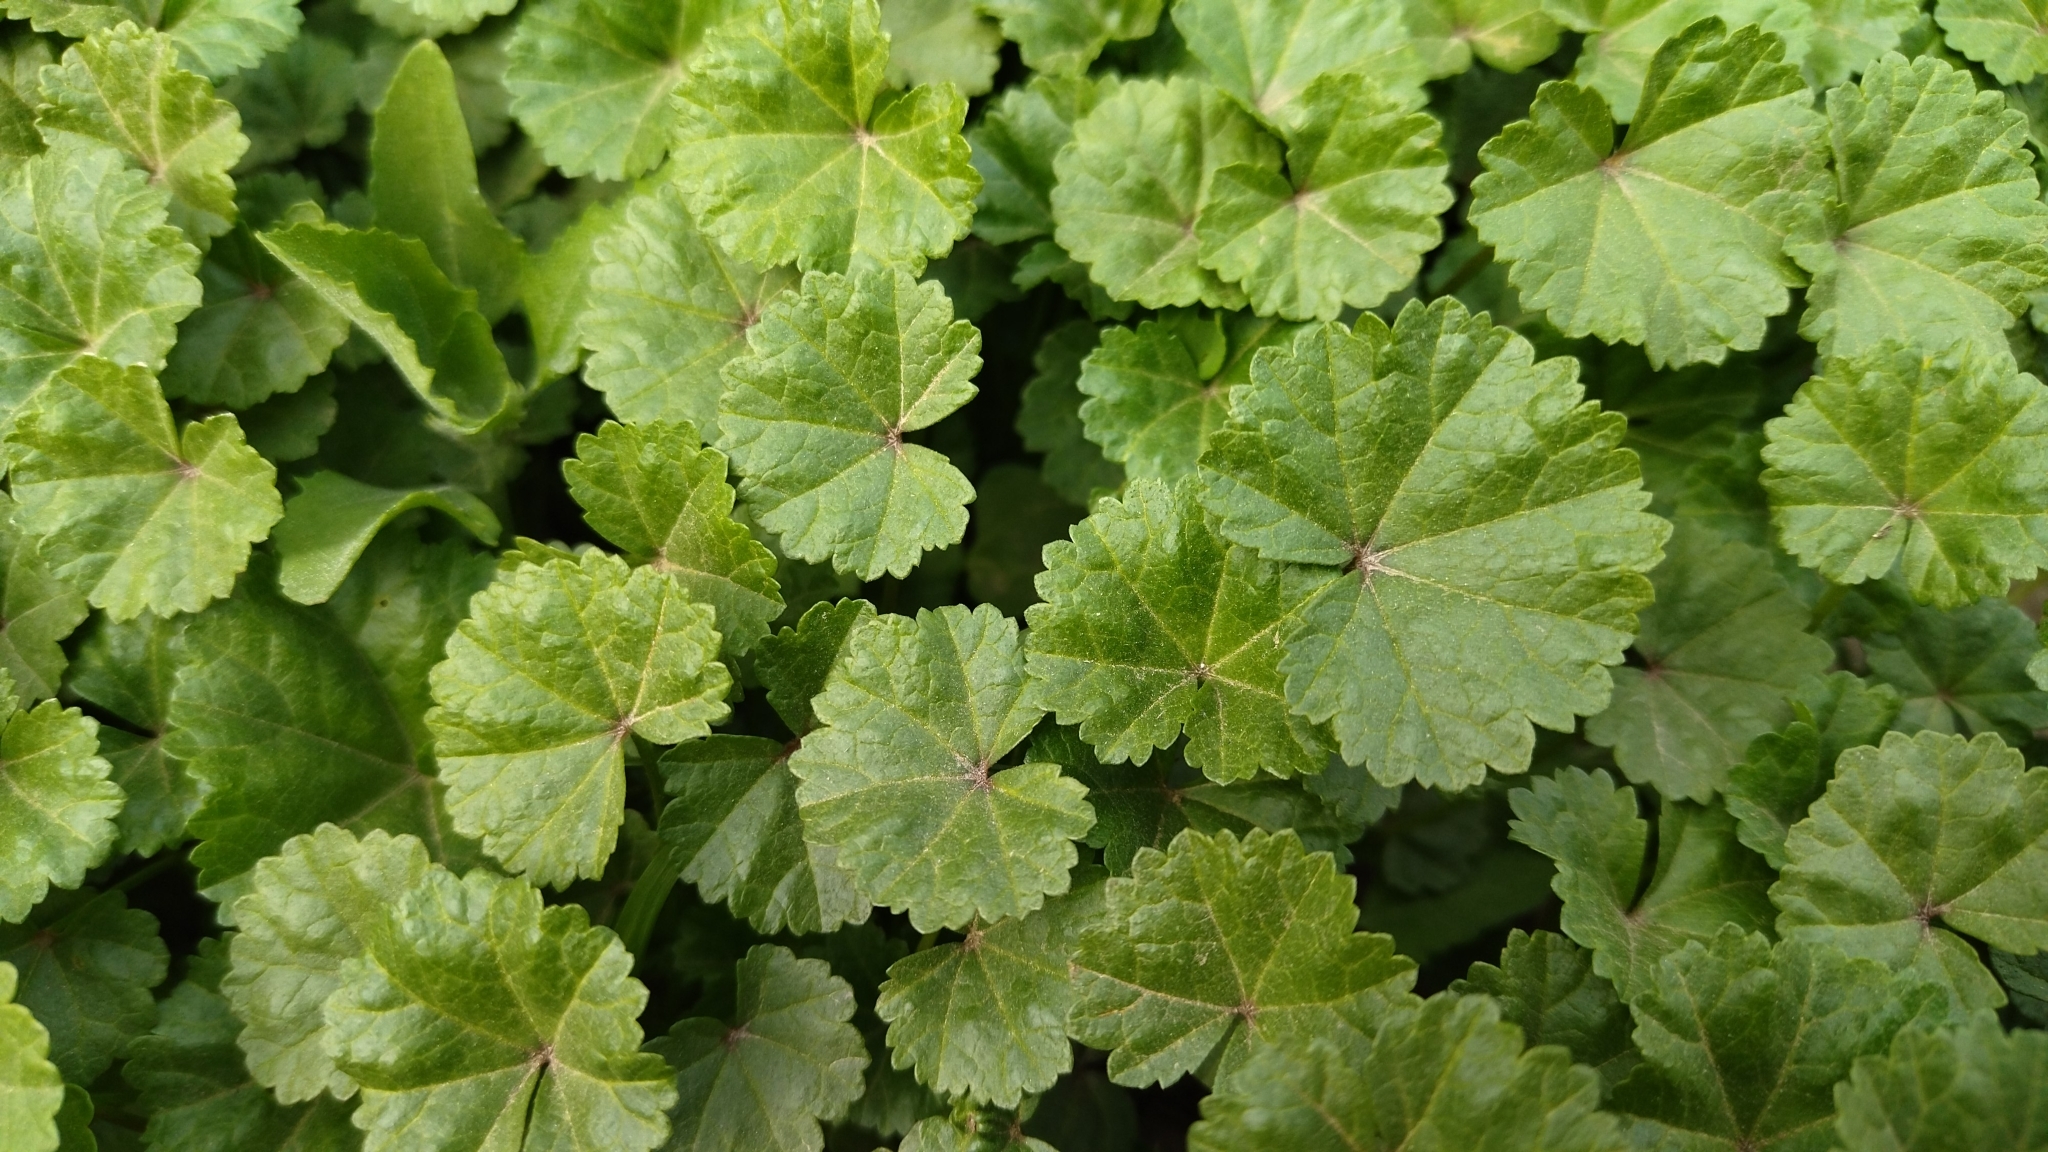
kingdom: Plantae
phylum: Tracheophyta
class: Magnoliopsida
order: Malvales
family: Malvaceae
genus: Malva
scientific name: Malva pusilla
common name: Small mallow
